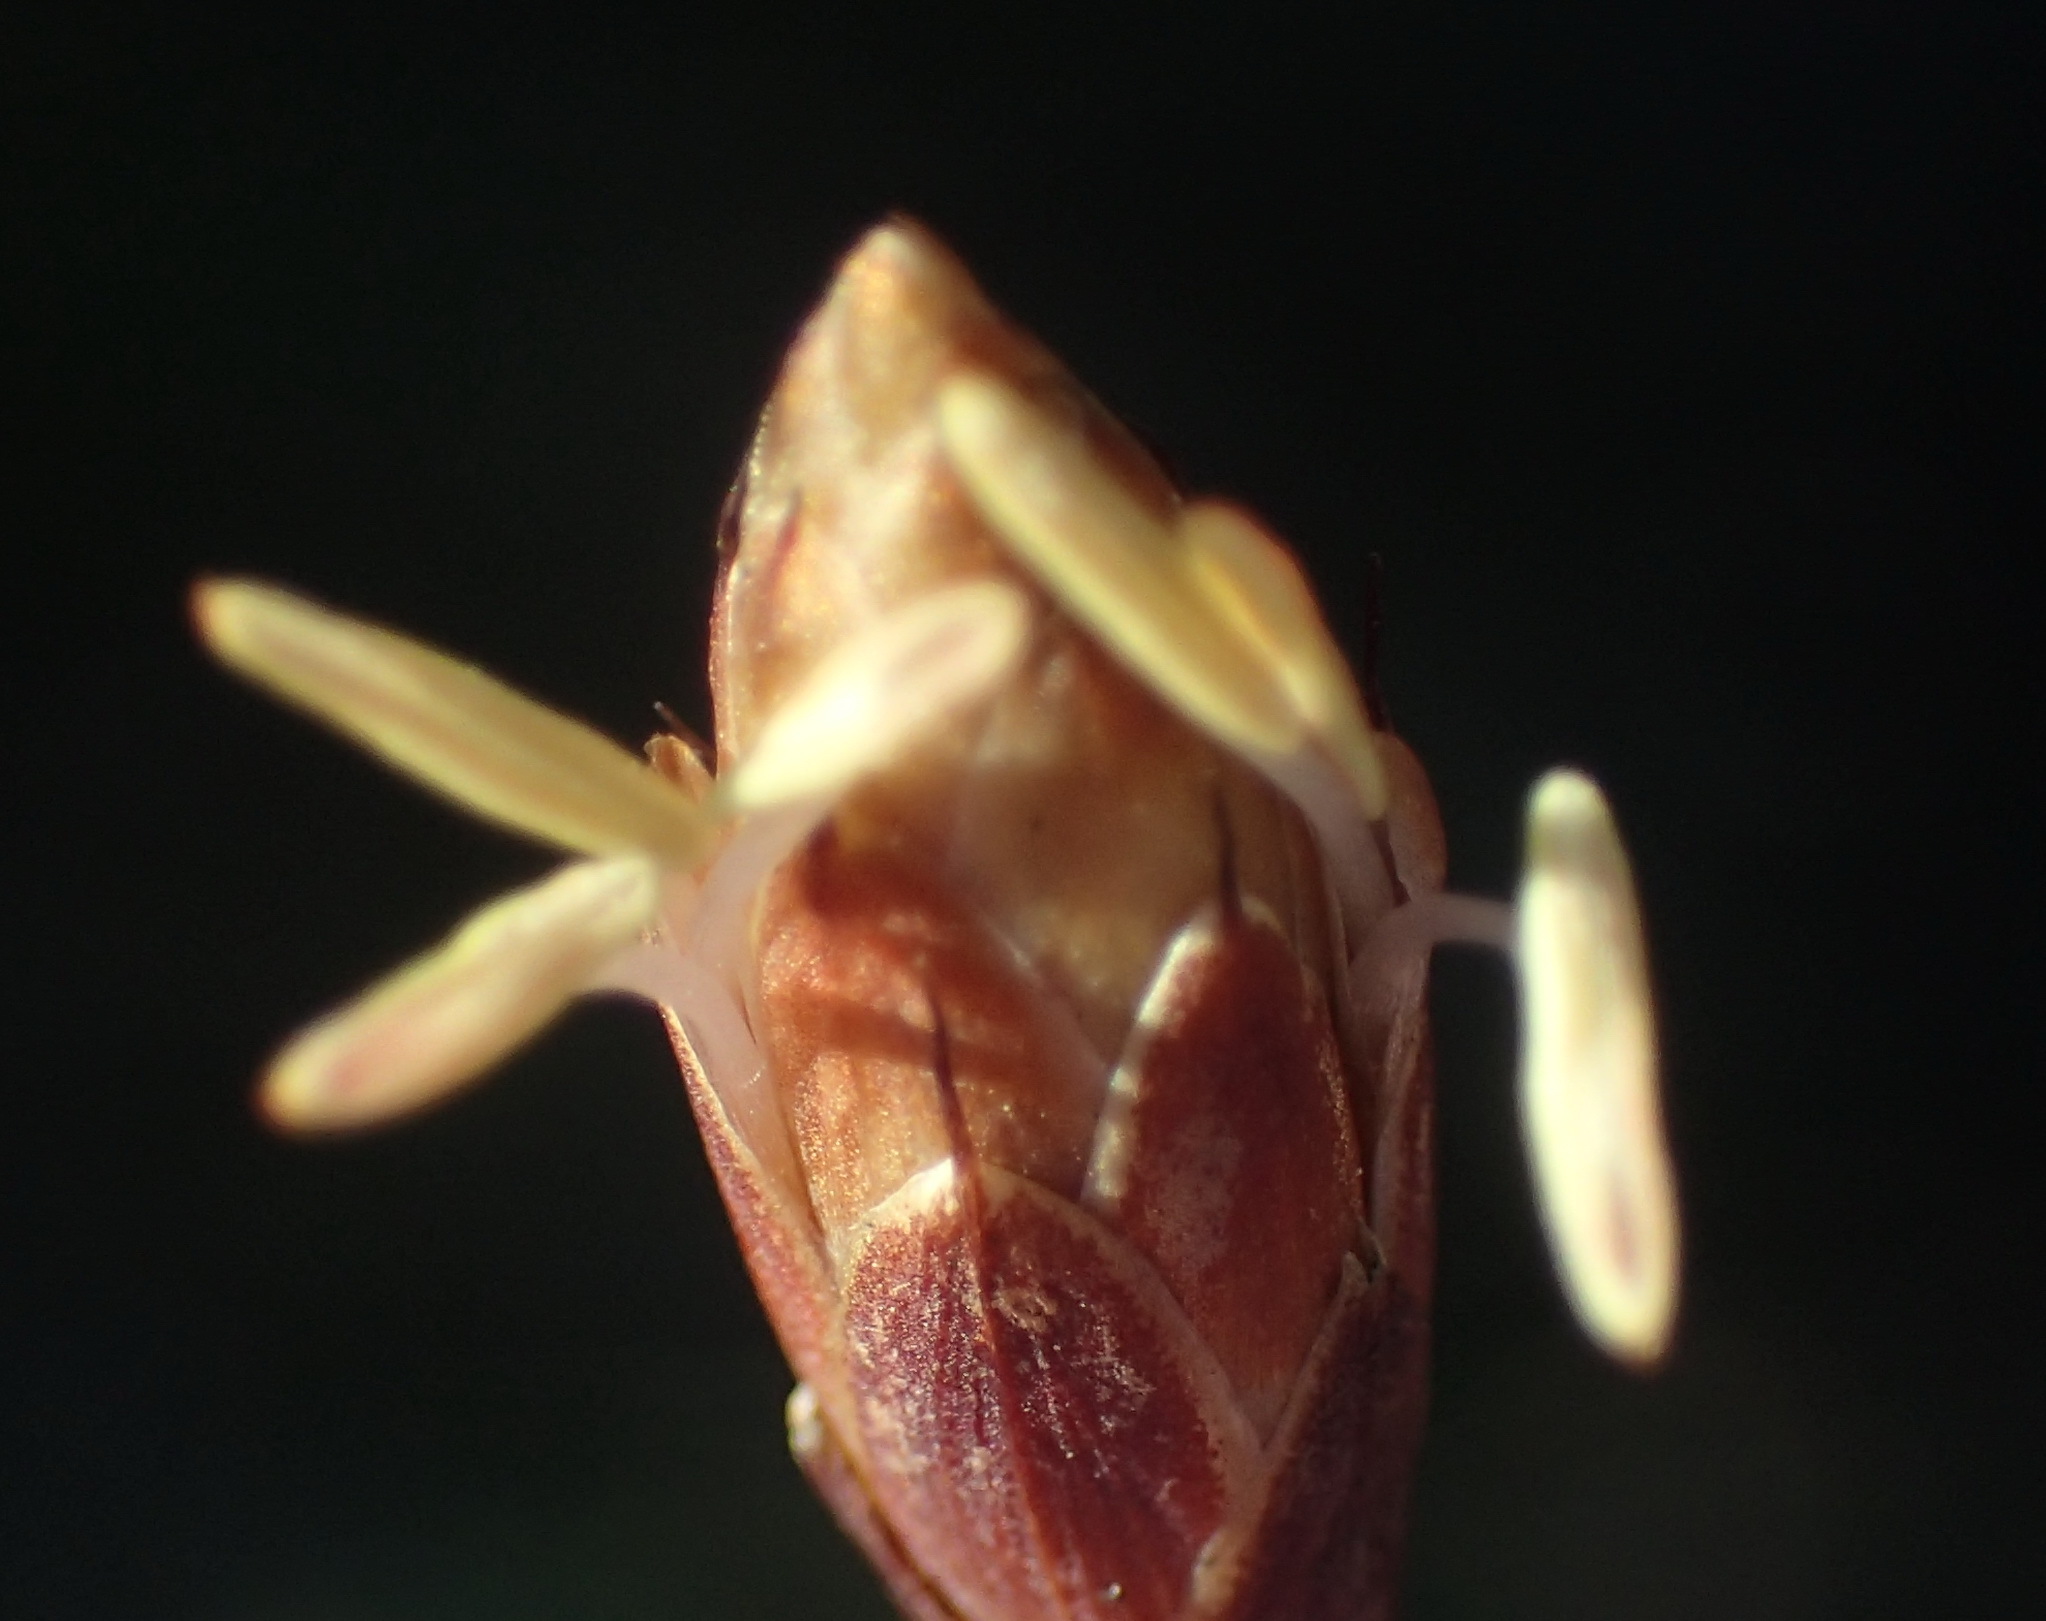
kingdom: Plantae
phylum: Tracheophyta
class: Liliopsida
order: Poales
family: Restionaceae
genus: Hypodiscus
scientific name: Hypodiscus willdenowia
